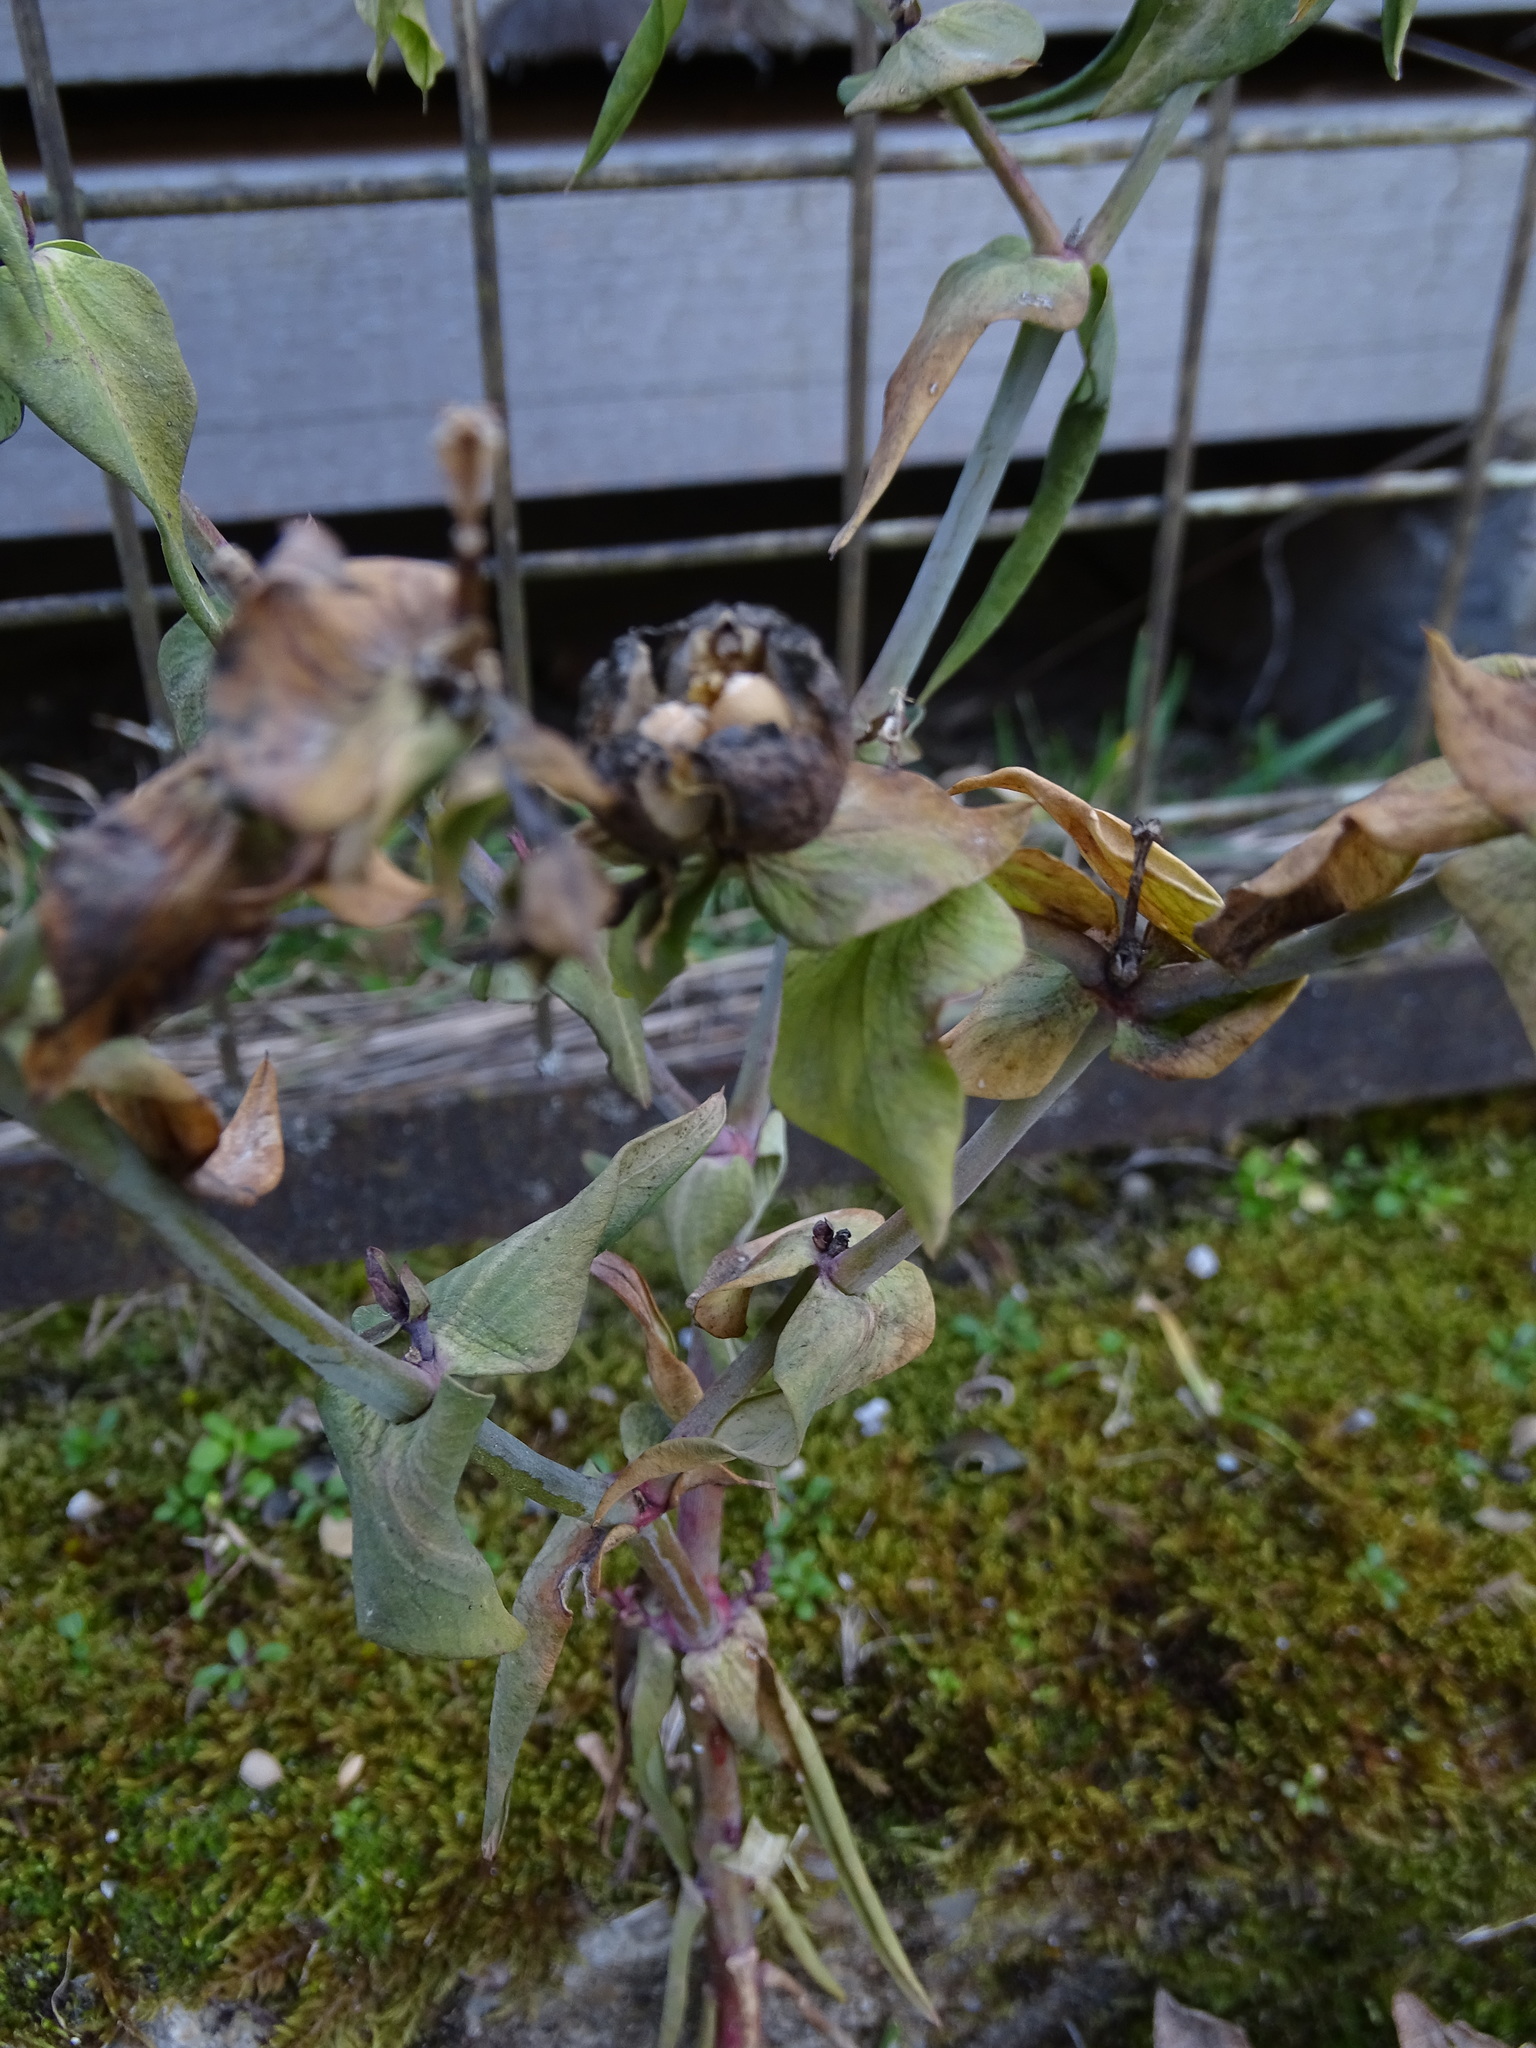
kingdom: Plantae
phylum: Tracheophyta
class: Magnoliopsida
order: Malpighiales
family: Euphorbiaceae
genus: Euphorbia
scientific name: Euphorbia lathyris
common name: Caper spurge
